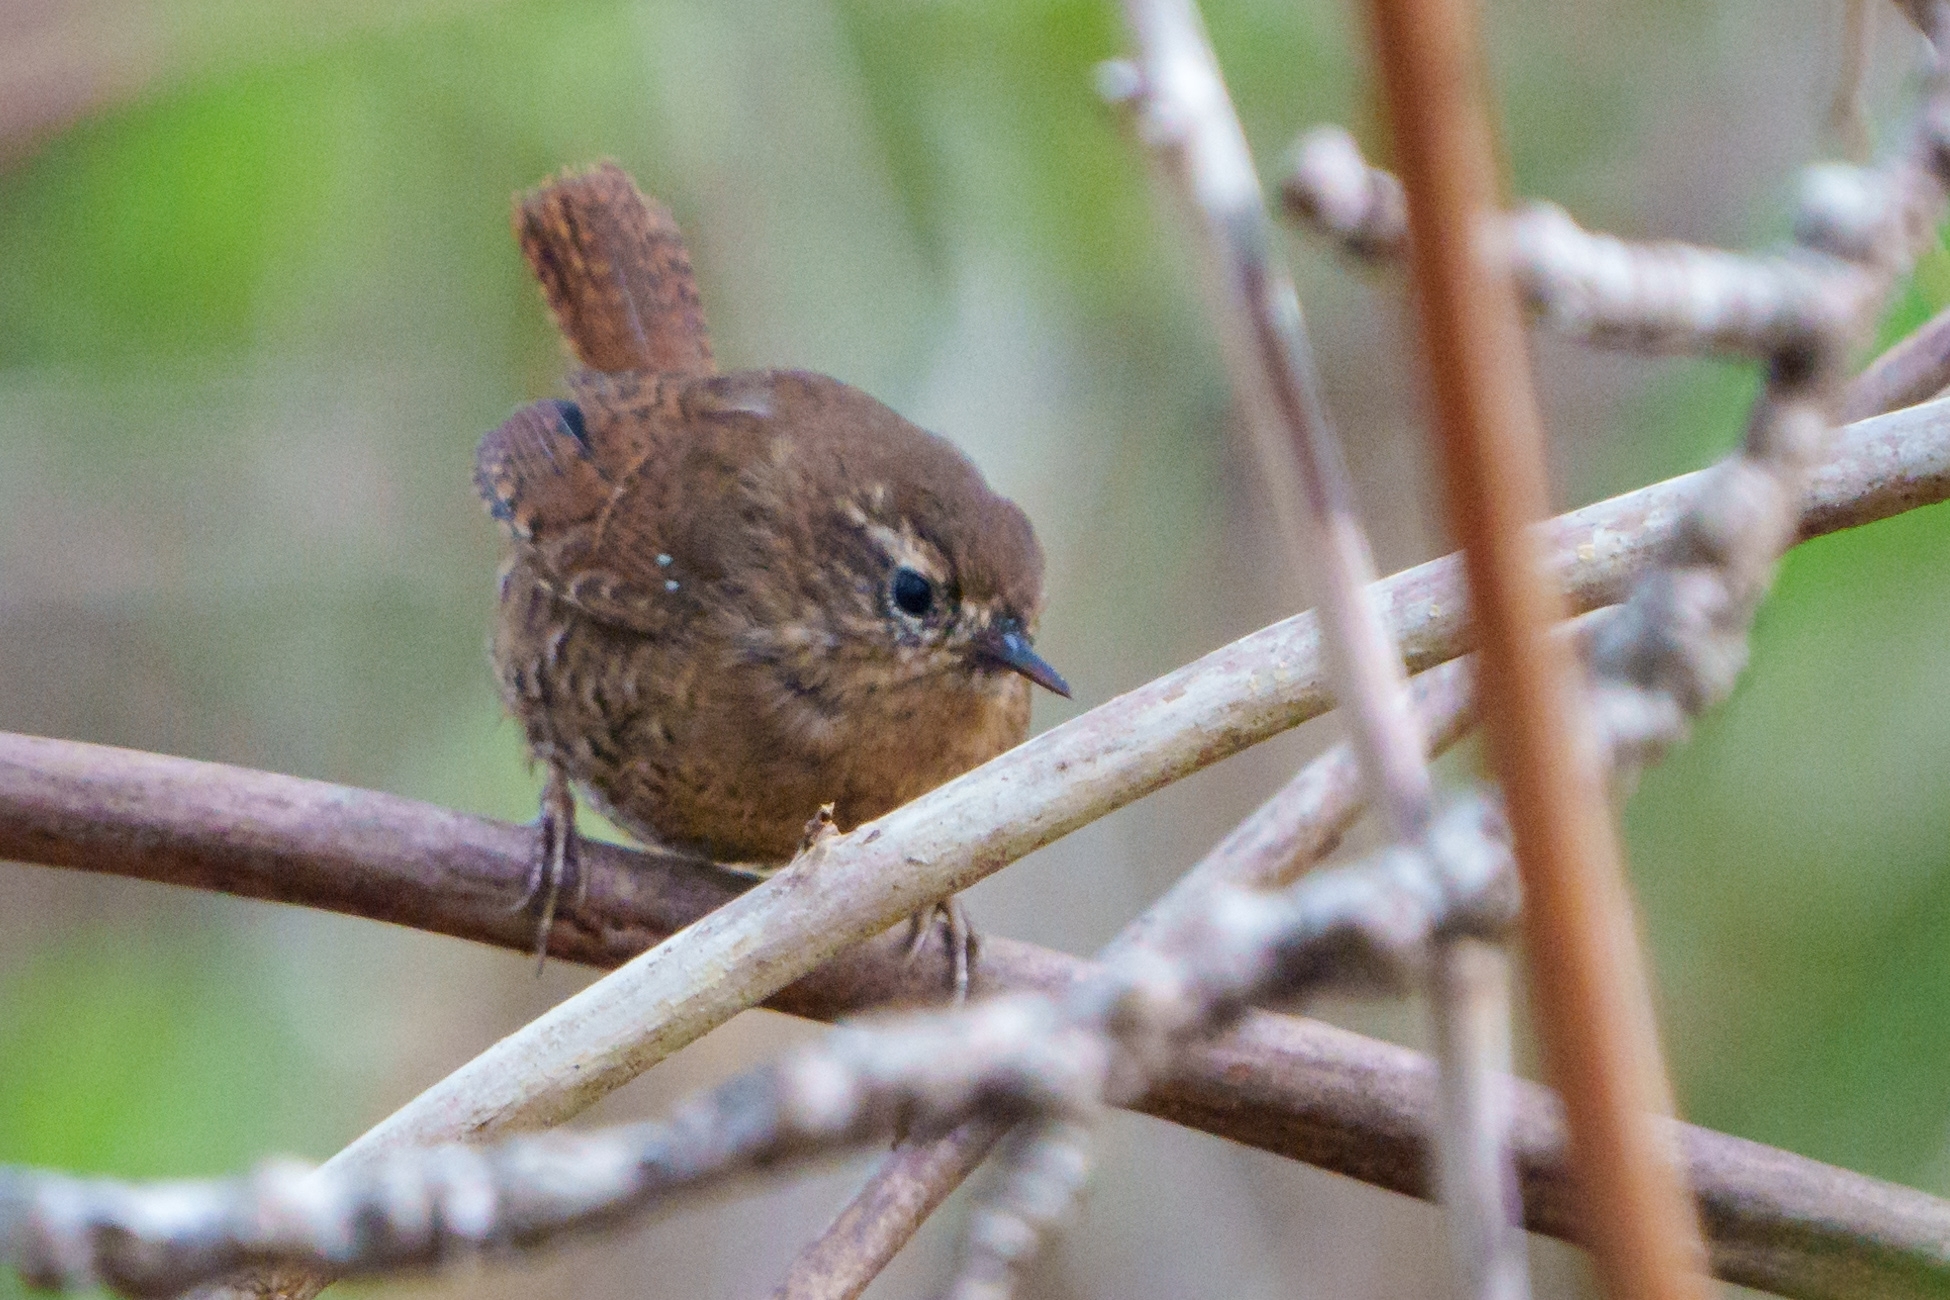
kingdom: Animalia
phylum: Chordata
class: Aves
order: Passeriformes
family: Troglodytidae
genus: Troglodytes
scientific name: Troglodytes pacificus
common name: Pacific wren
